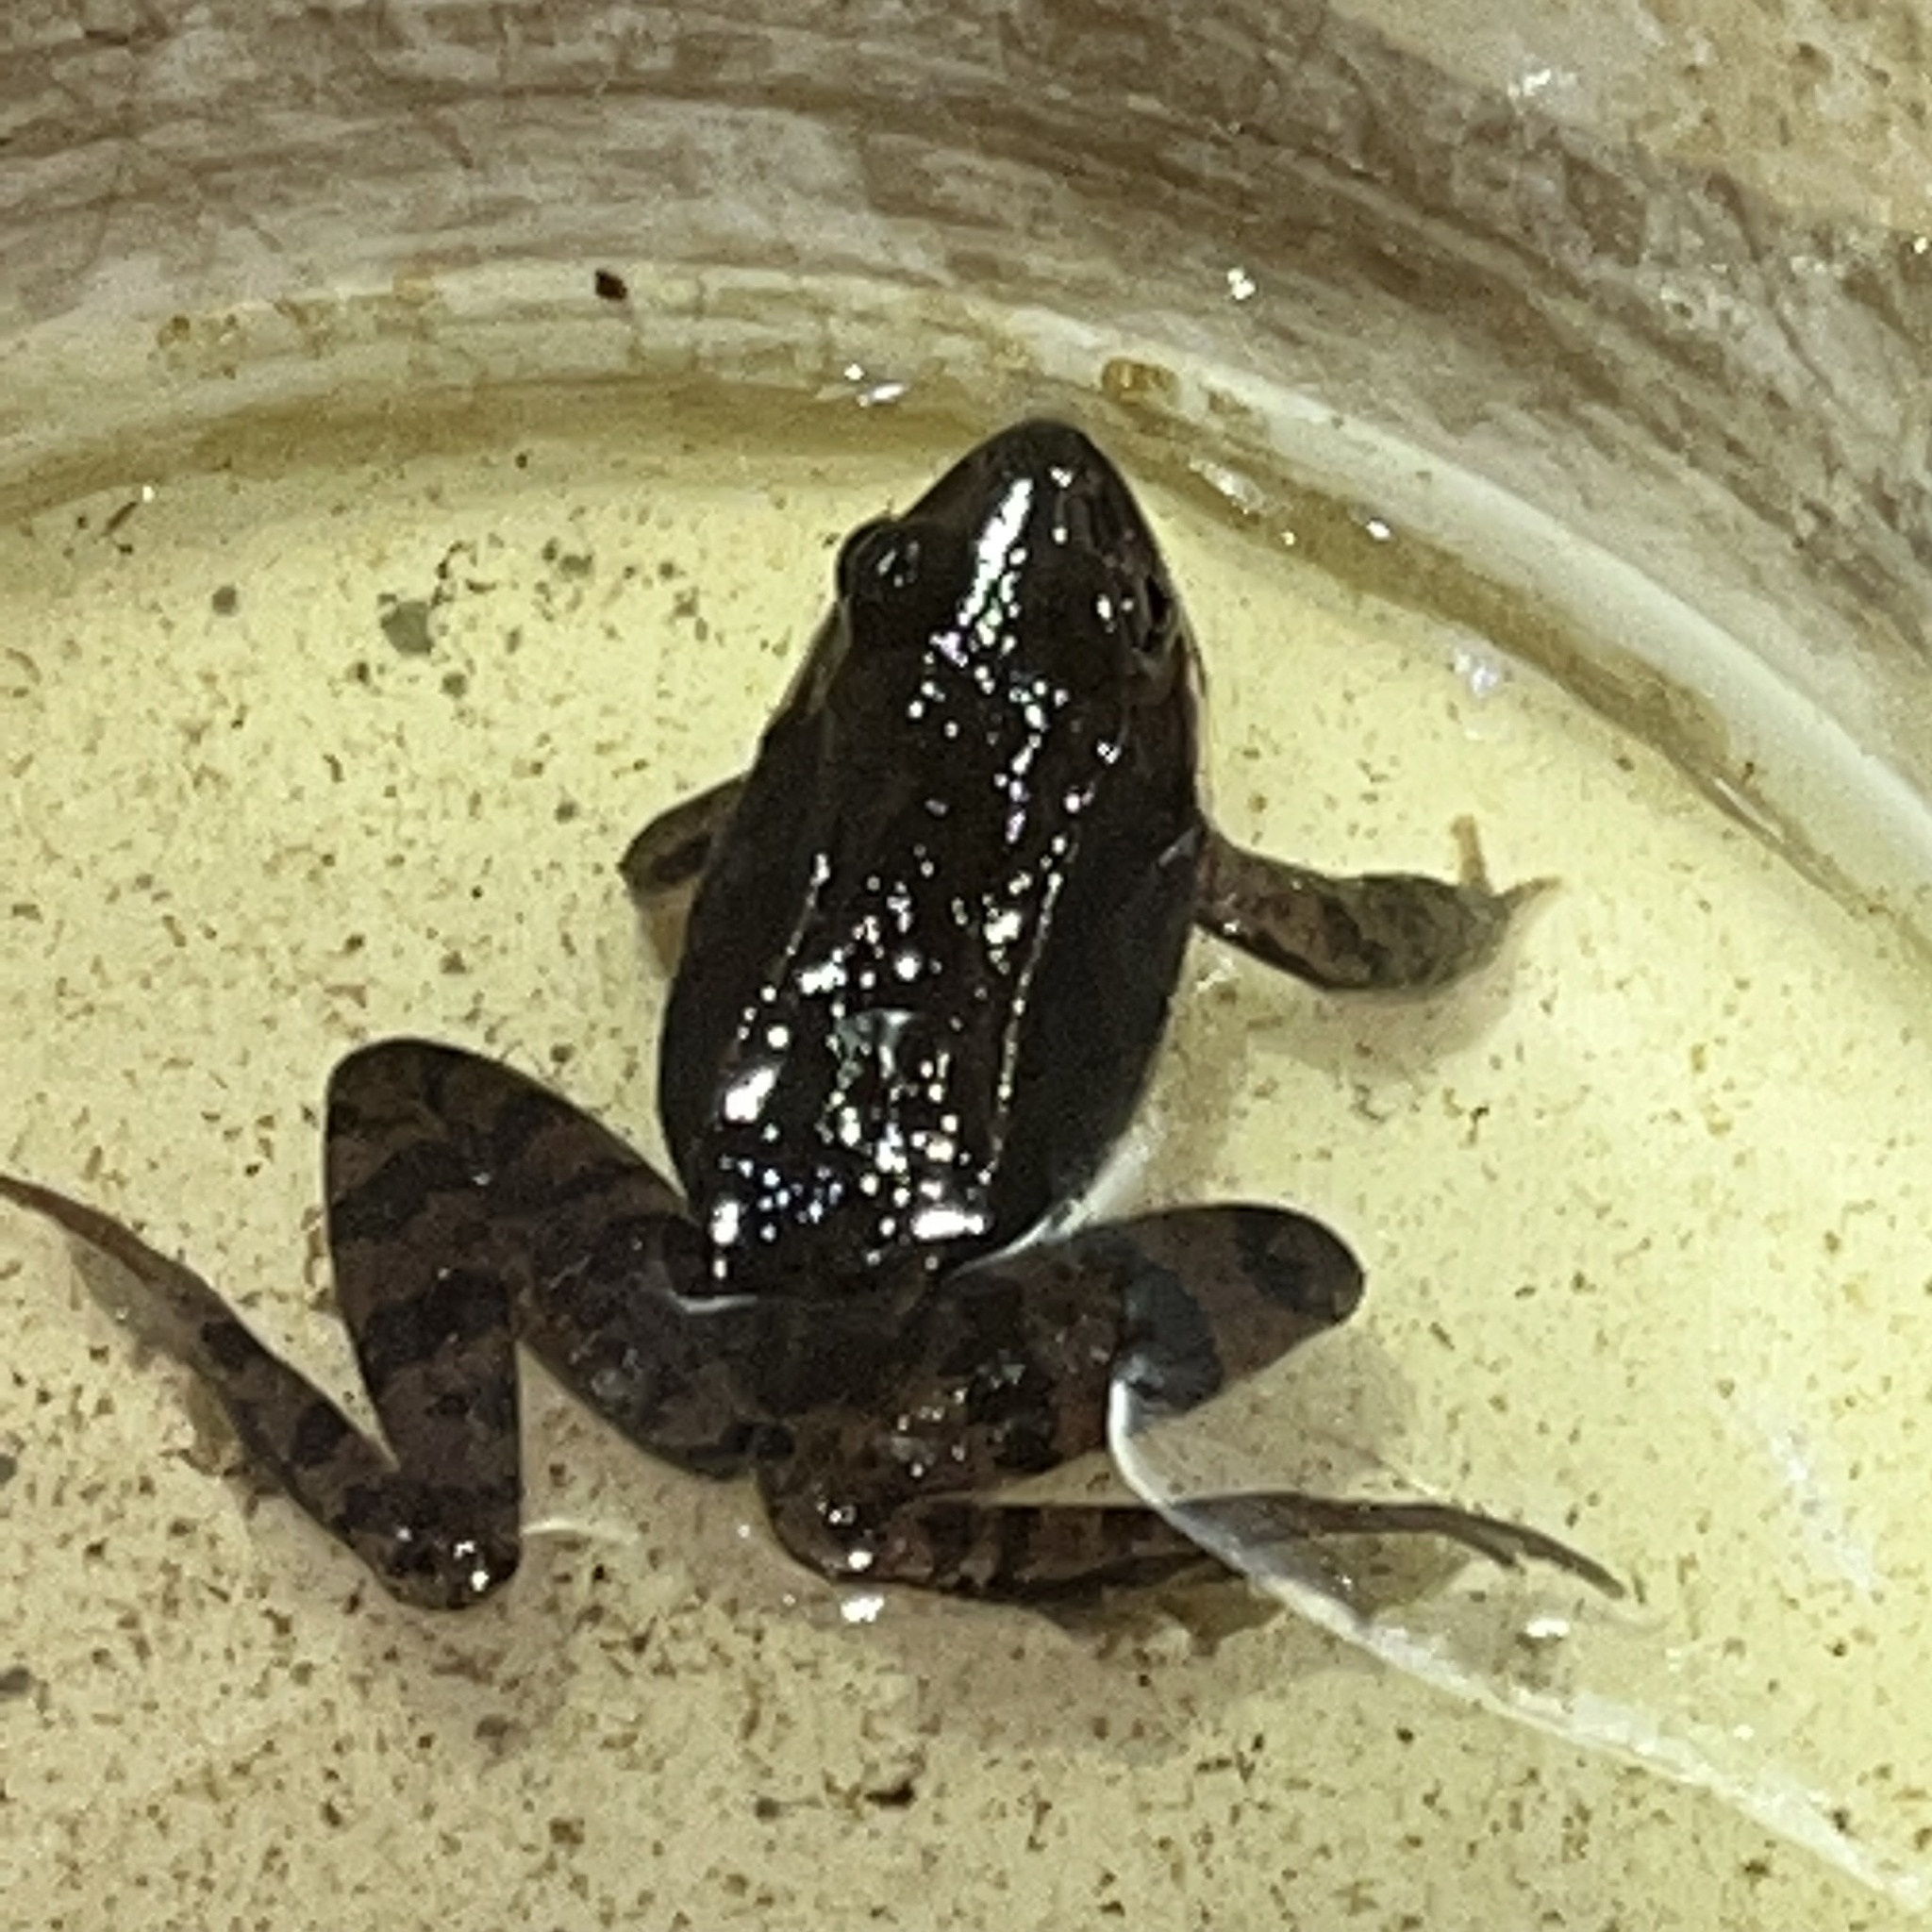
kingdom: Animalia
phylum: Chordata
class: Amphibia
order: Anura
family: Ranidae
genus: Lithobates
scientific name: Lithobates sylvaticus
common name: Wood frog
